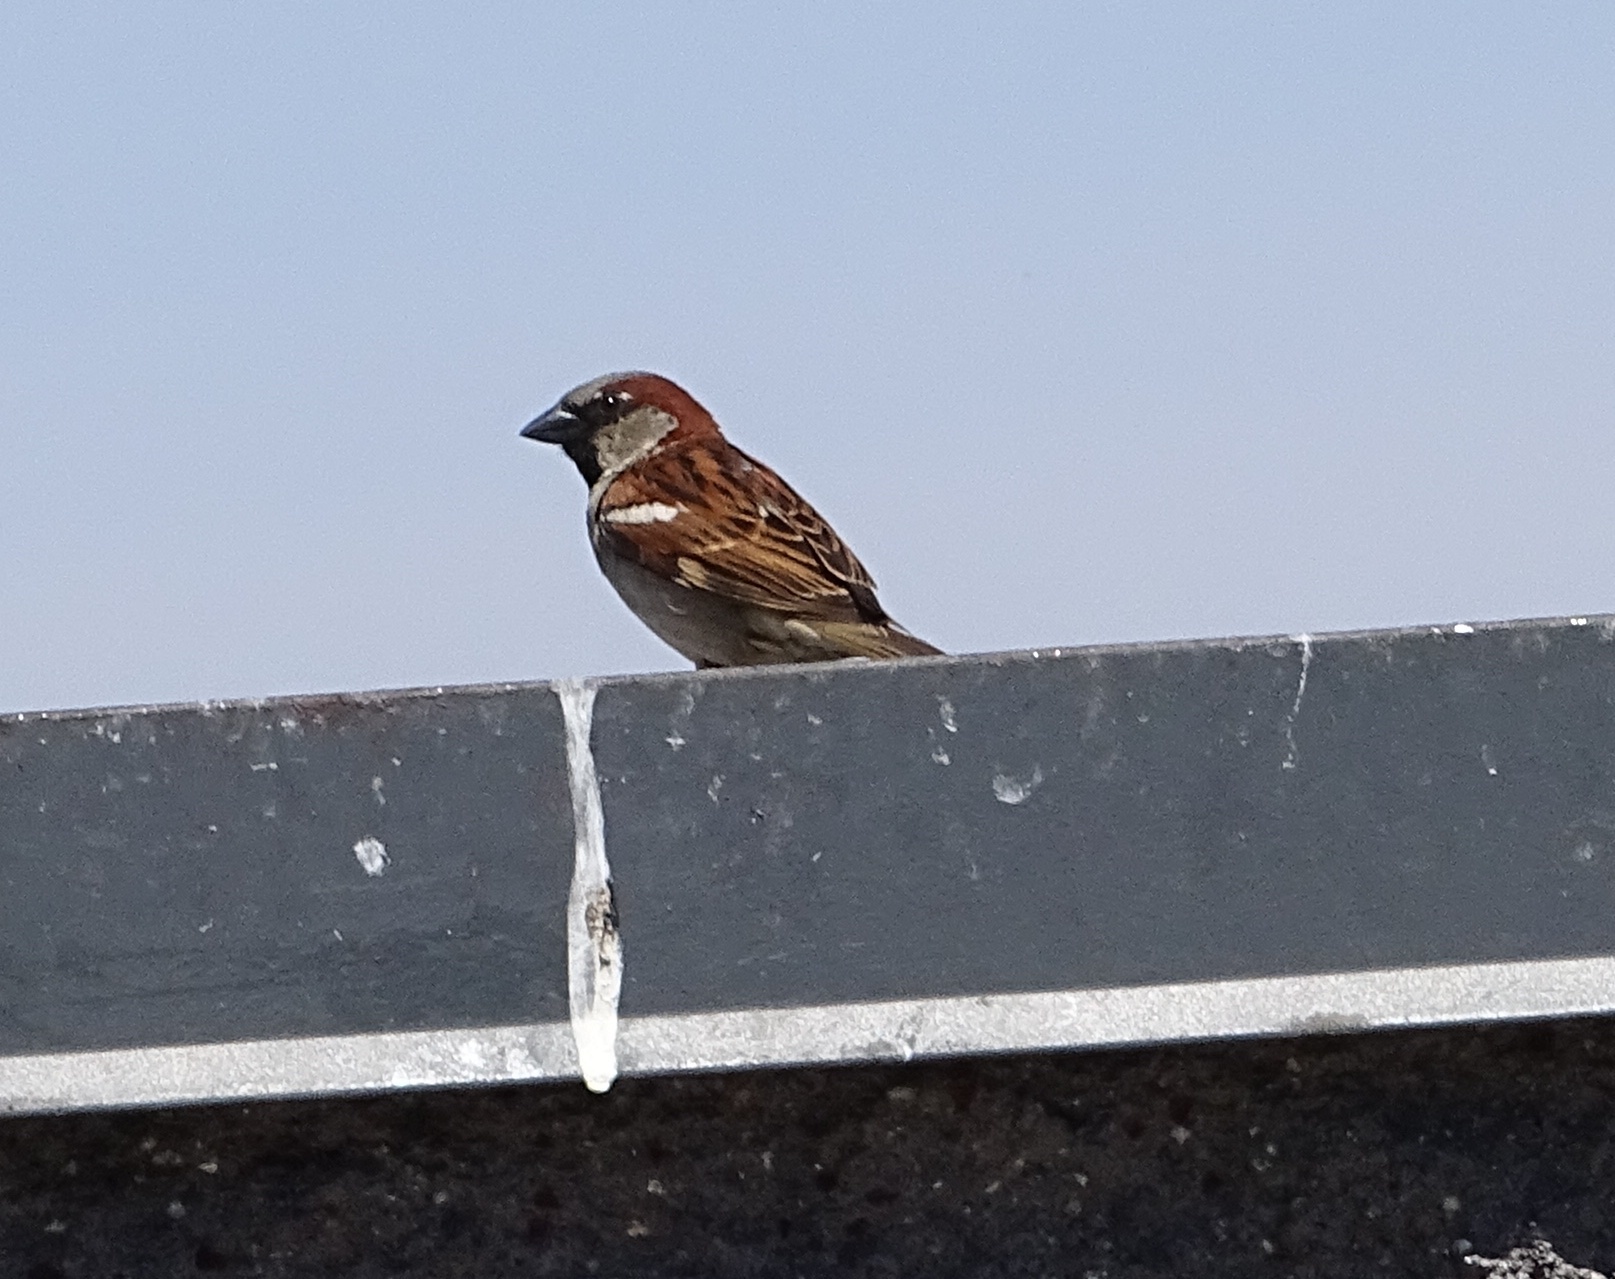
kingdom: Animalia
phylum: Chordata
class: Aves
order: Passeriformes
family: Passeridae
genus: Passer
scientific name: Passer domesticus
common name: House sparrow
